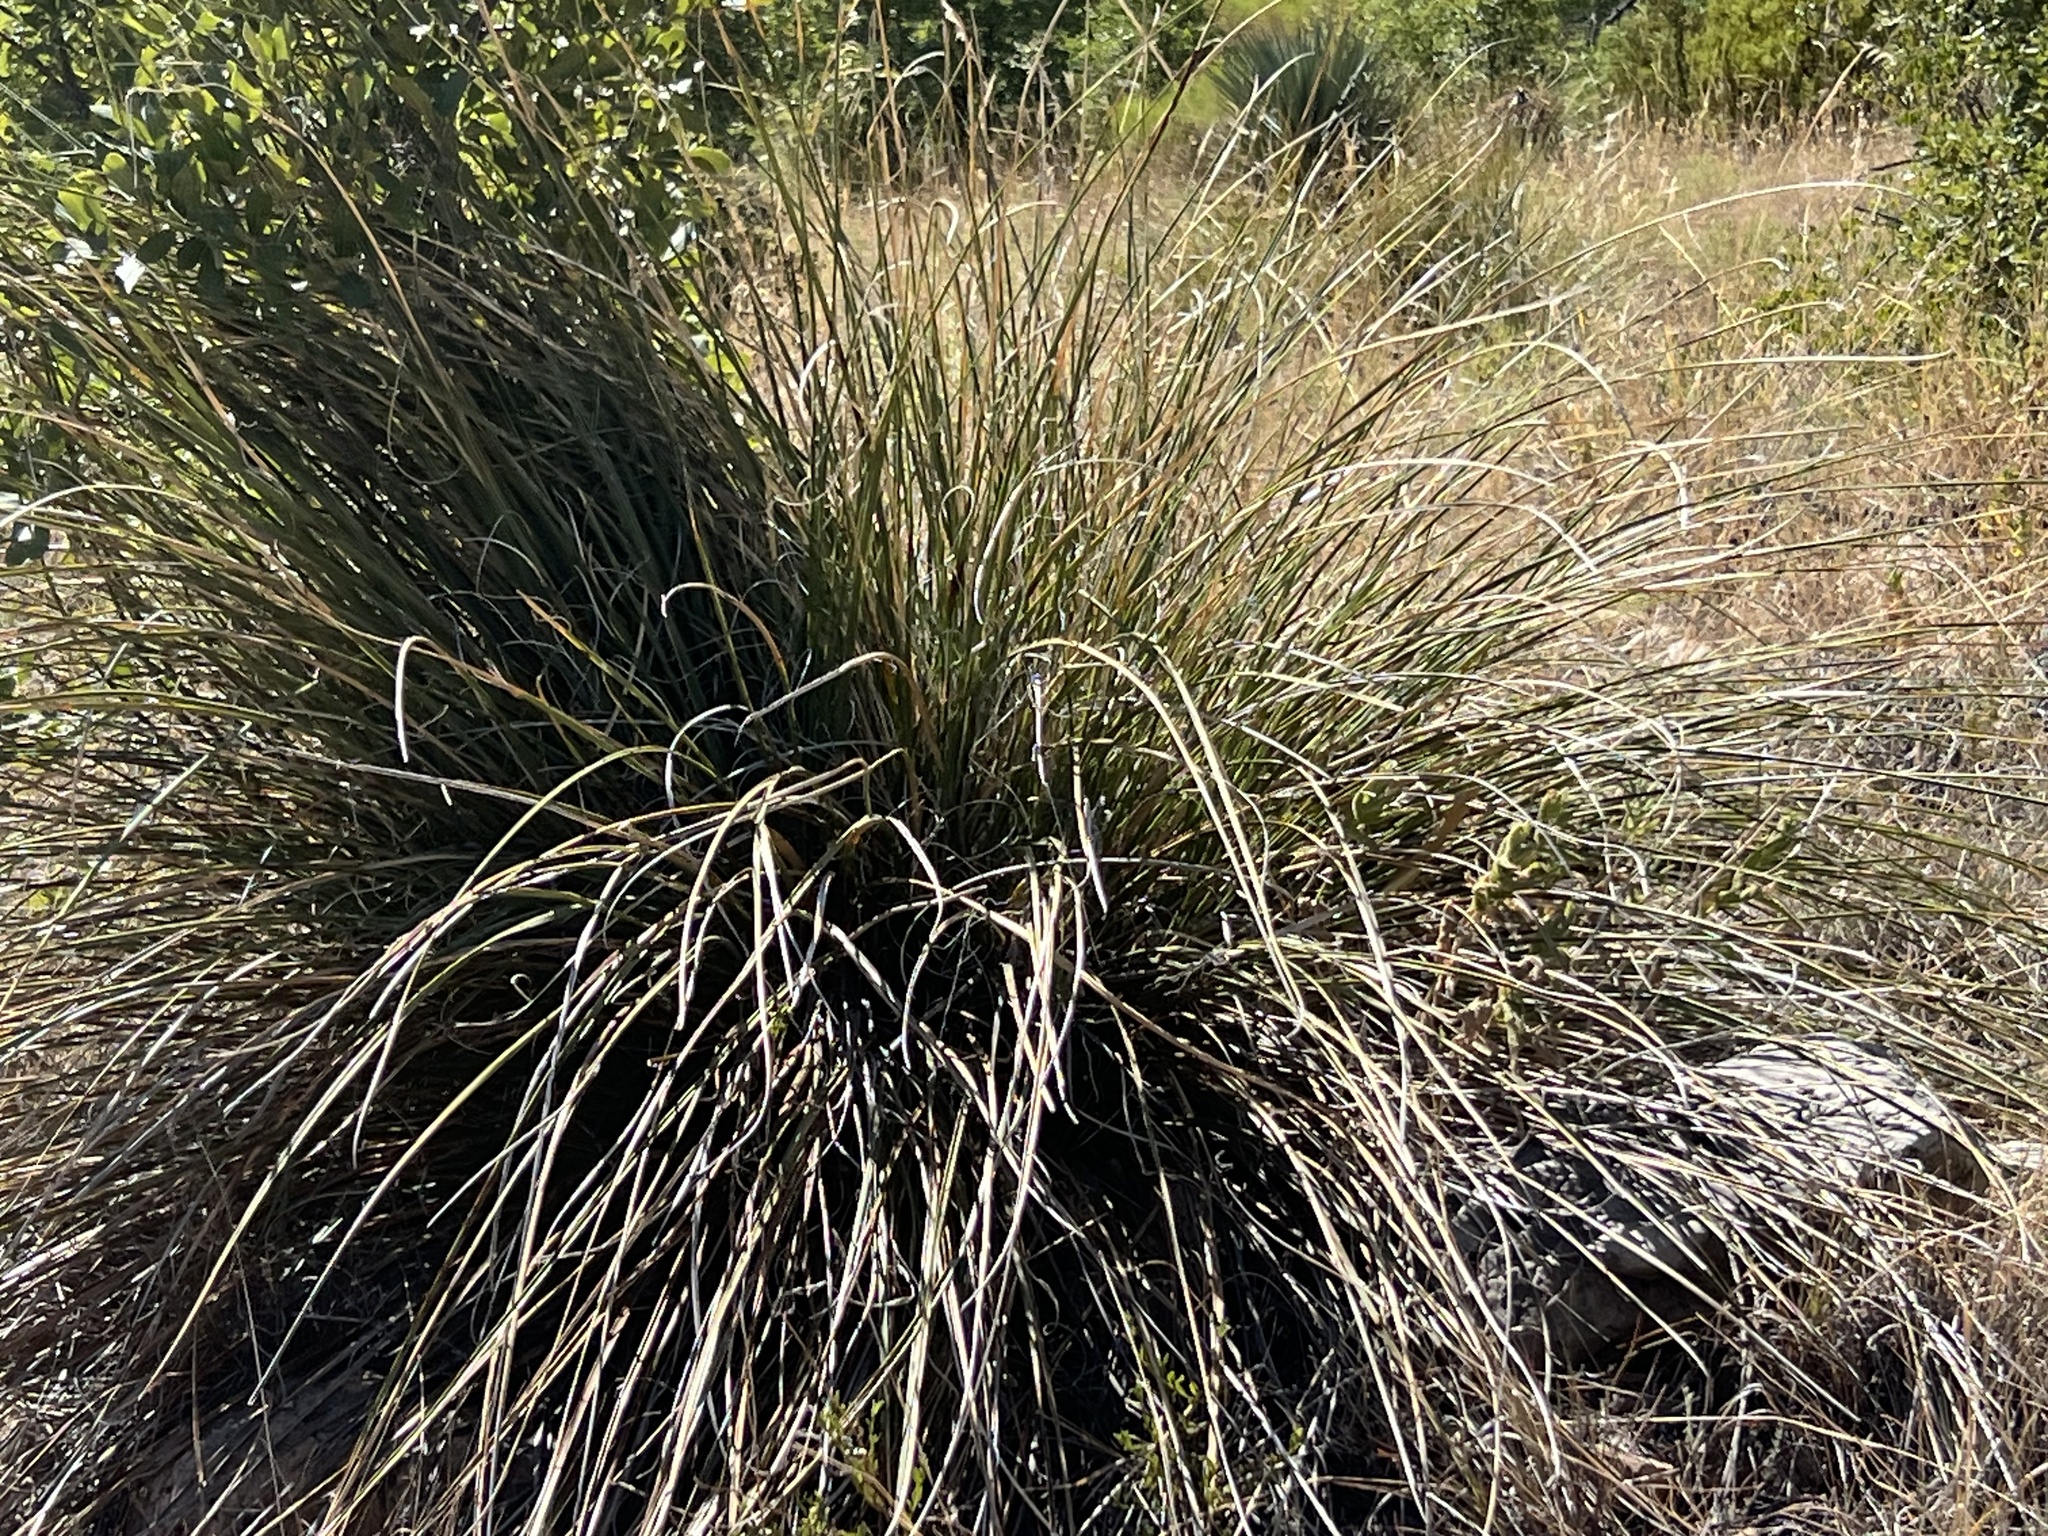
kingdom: Plantae
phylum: Tracheophyta
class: Liliopsida
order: Asparagales
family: Asparagaceae
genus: Nolina
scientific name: Nolina microcarpa
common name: Bear-grass
